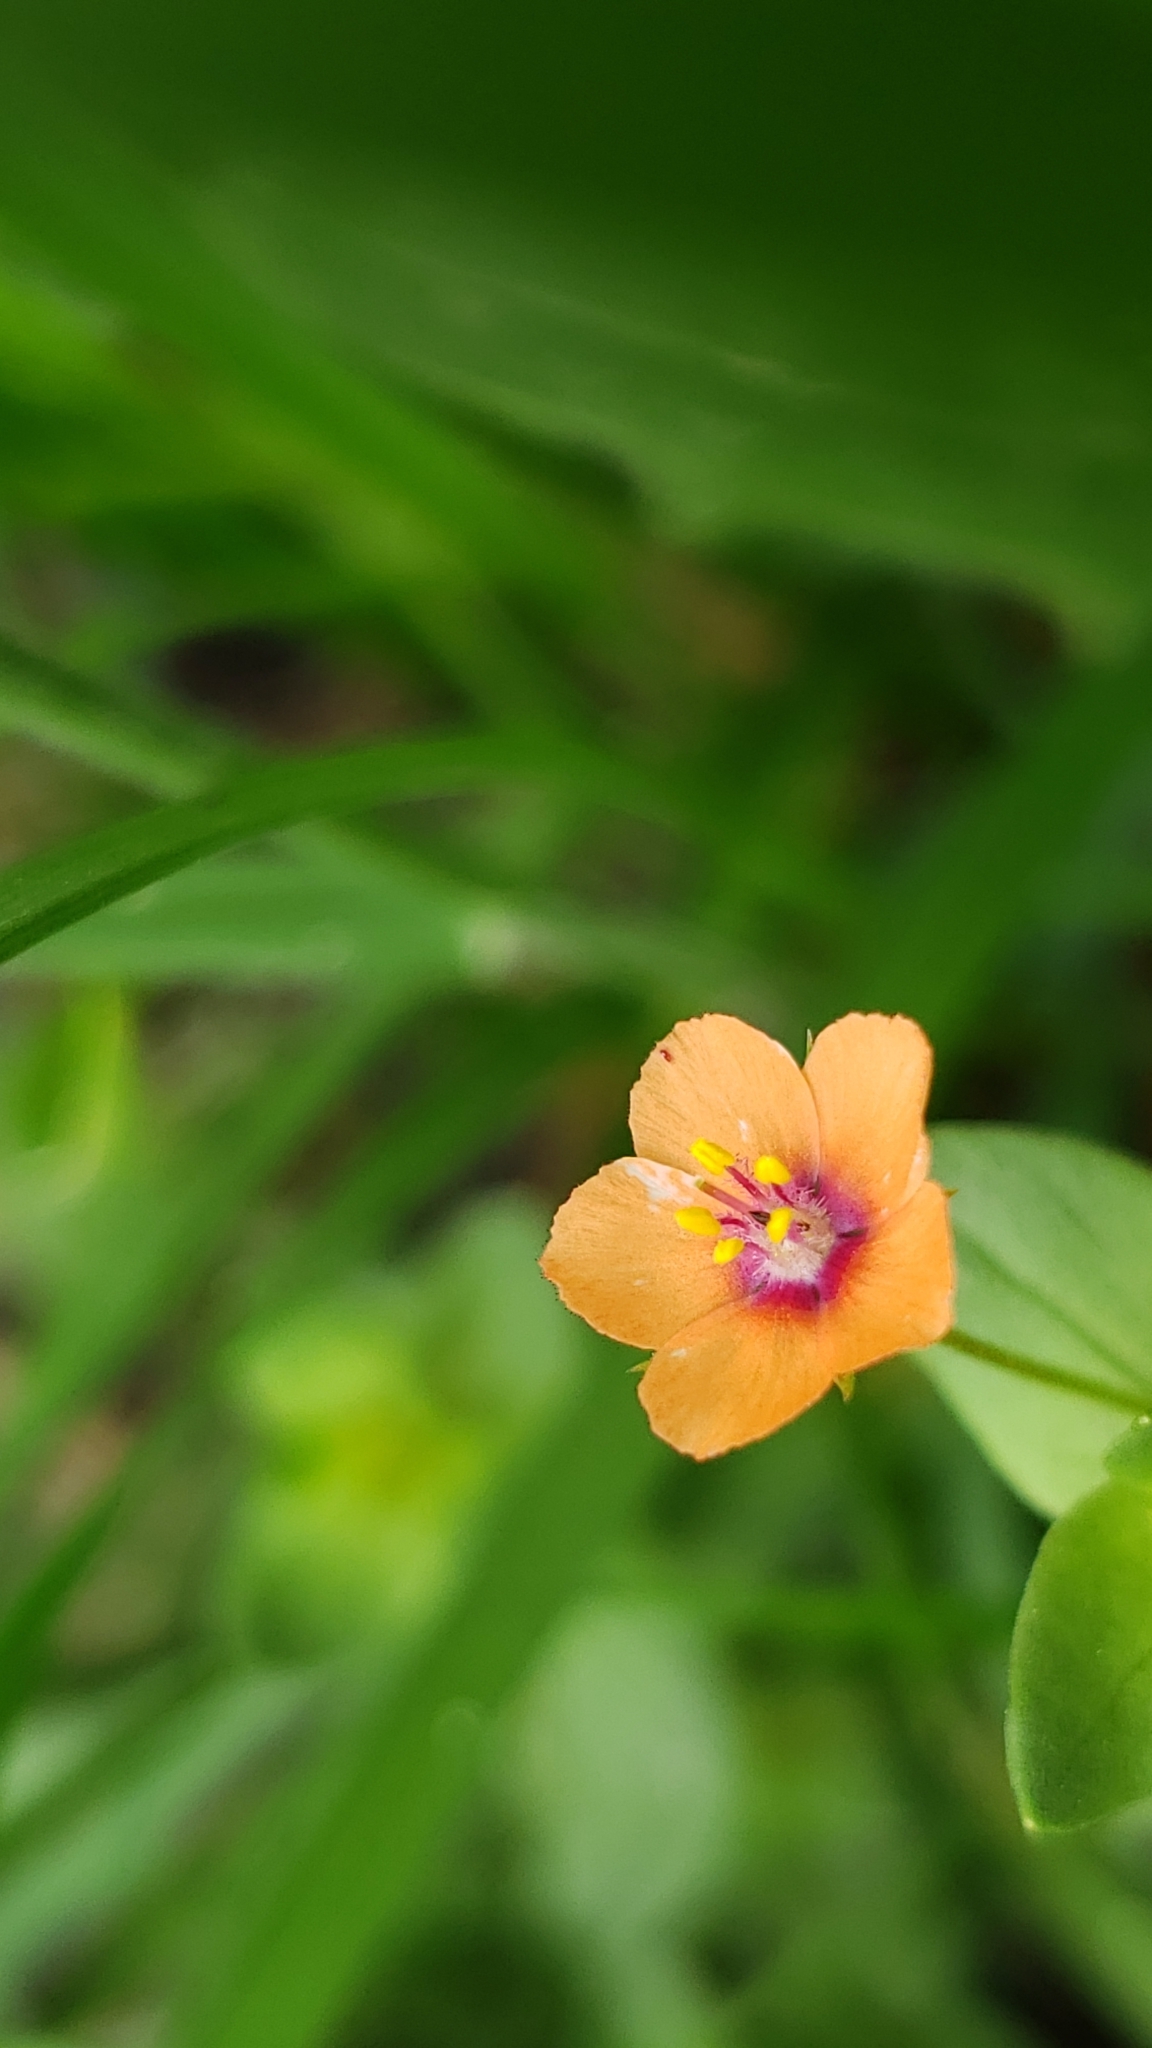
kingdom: Plantae
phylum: Tracheophyta
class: Magnoliopsida
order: Ericales
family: Primulaceae
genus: Lysimachia
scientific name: Lysimachia arvensis
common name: Scarlet pimpernel
